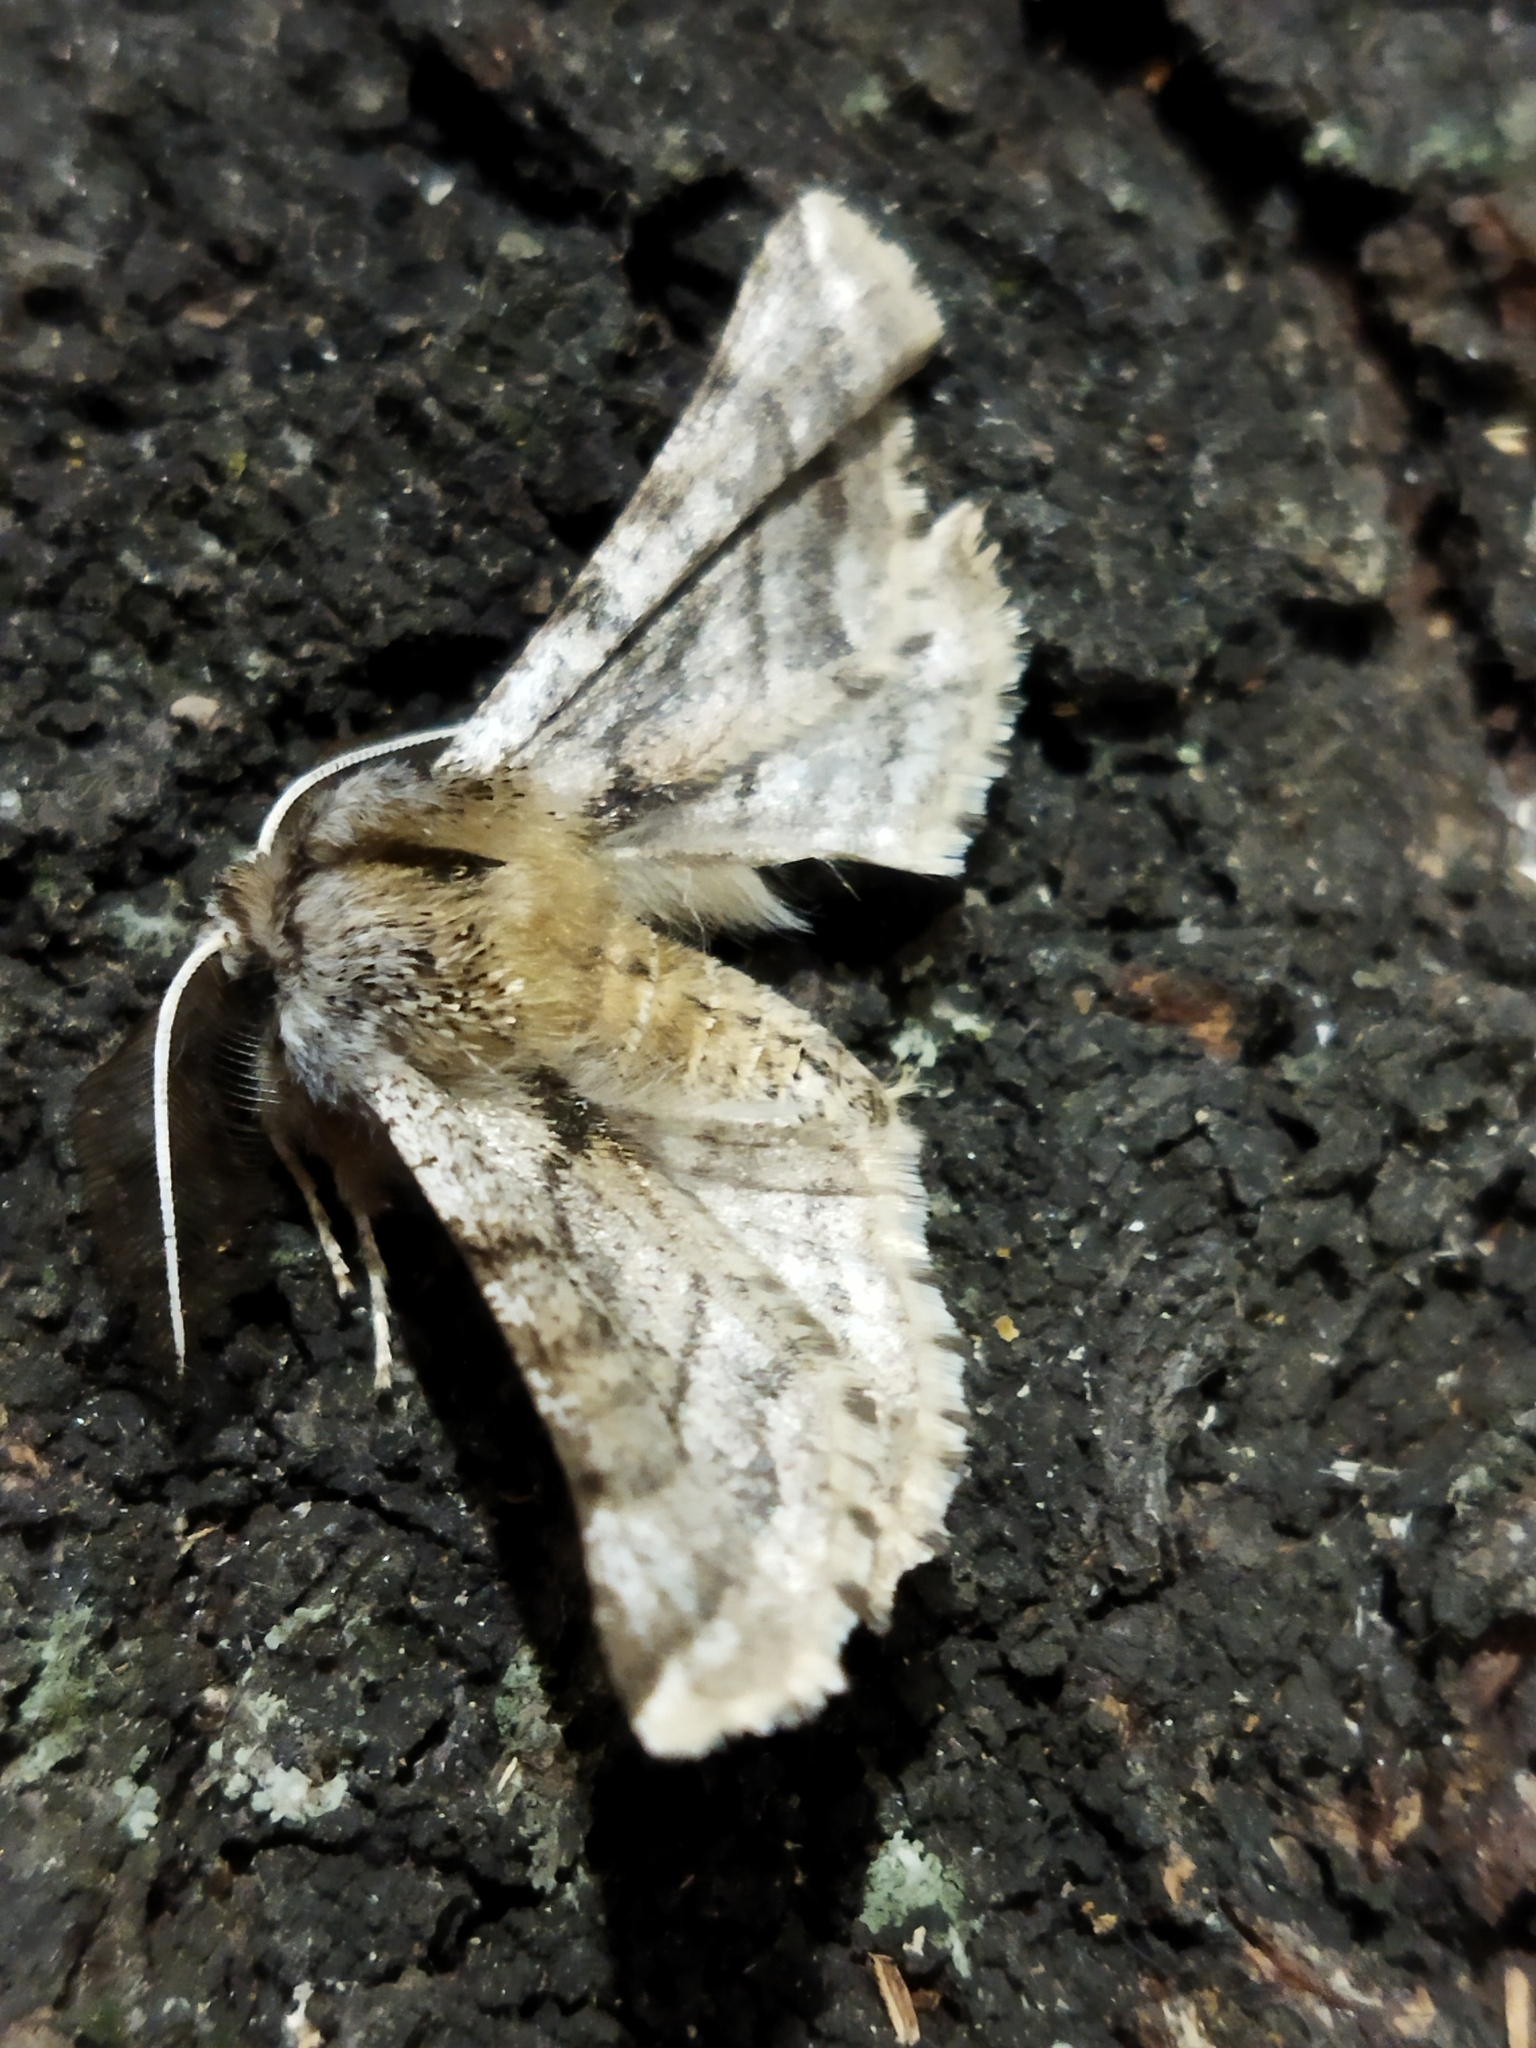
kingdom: Animalia
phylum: Arthropoda
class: Insecta
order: Lepidoptera
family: Geometridae
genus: Apochima
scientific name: Apochima flabellaria
